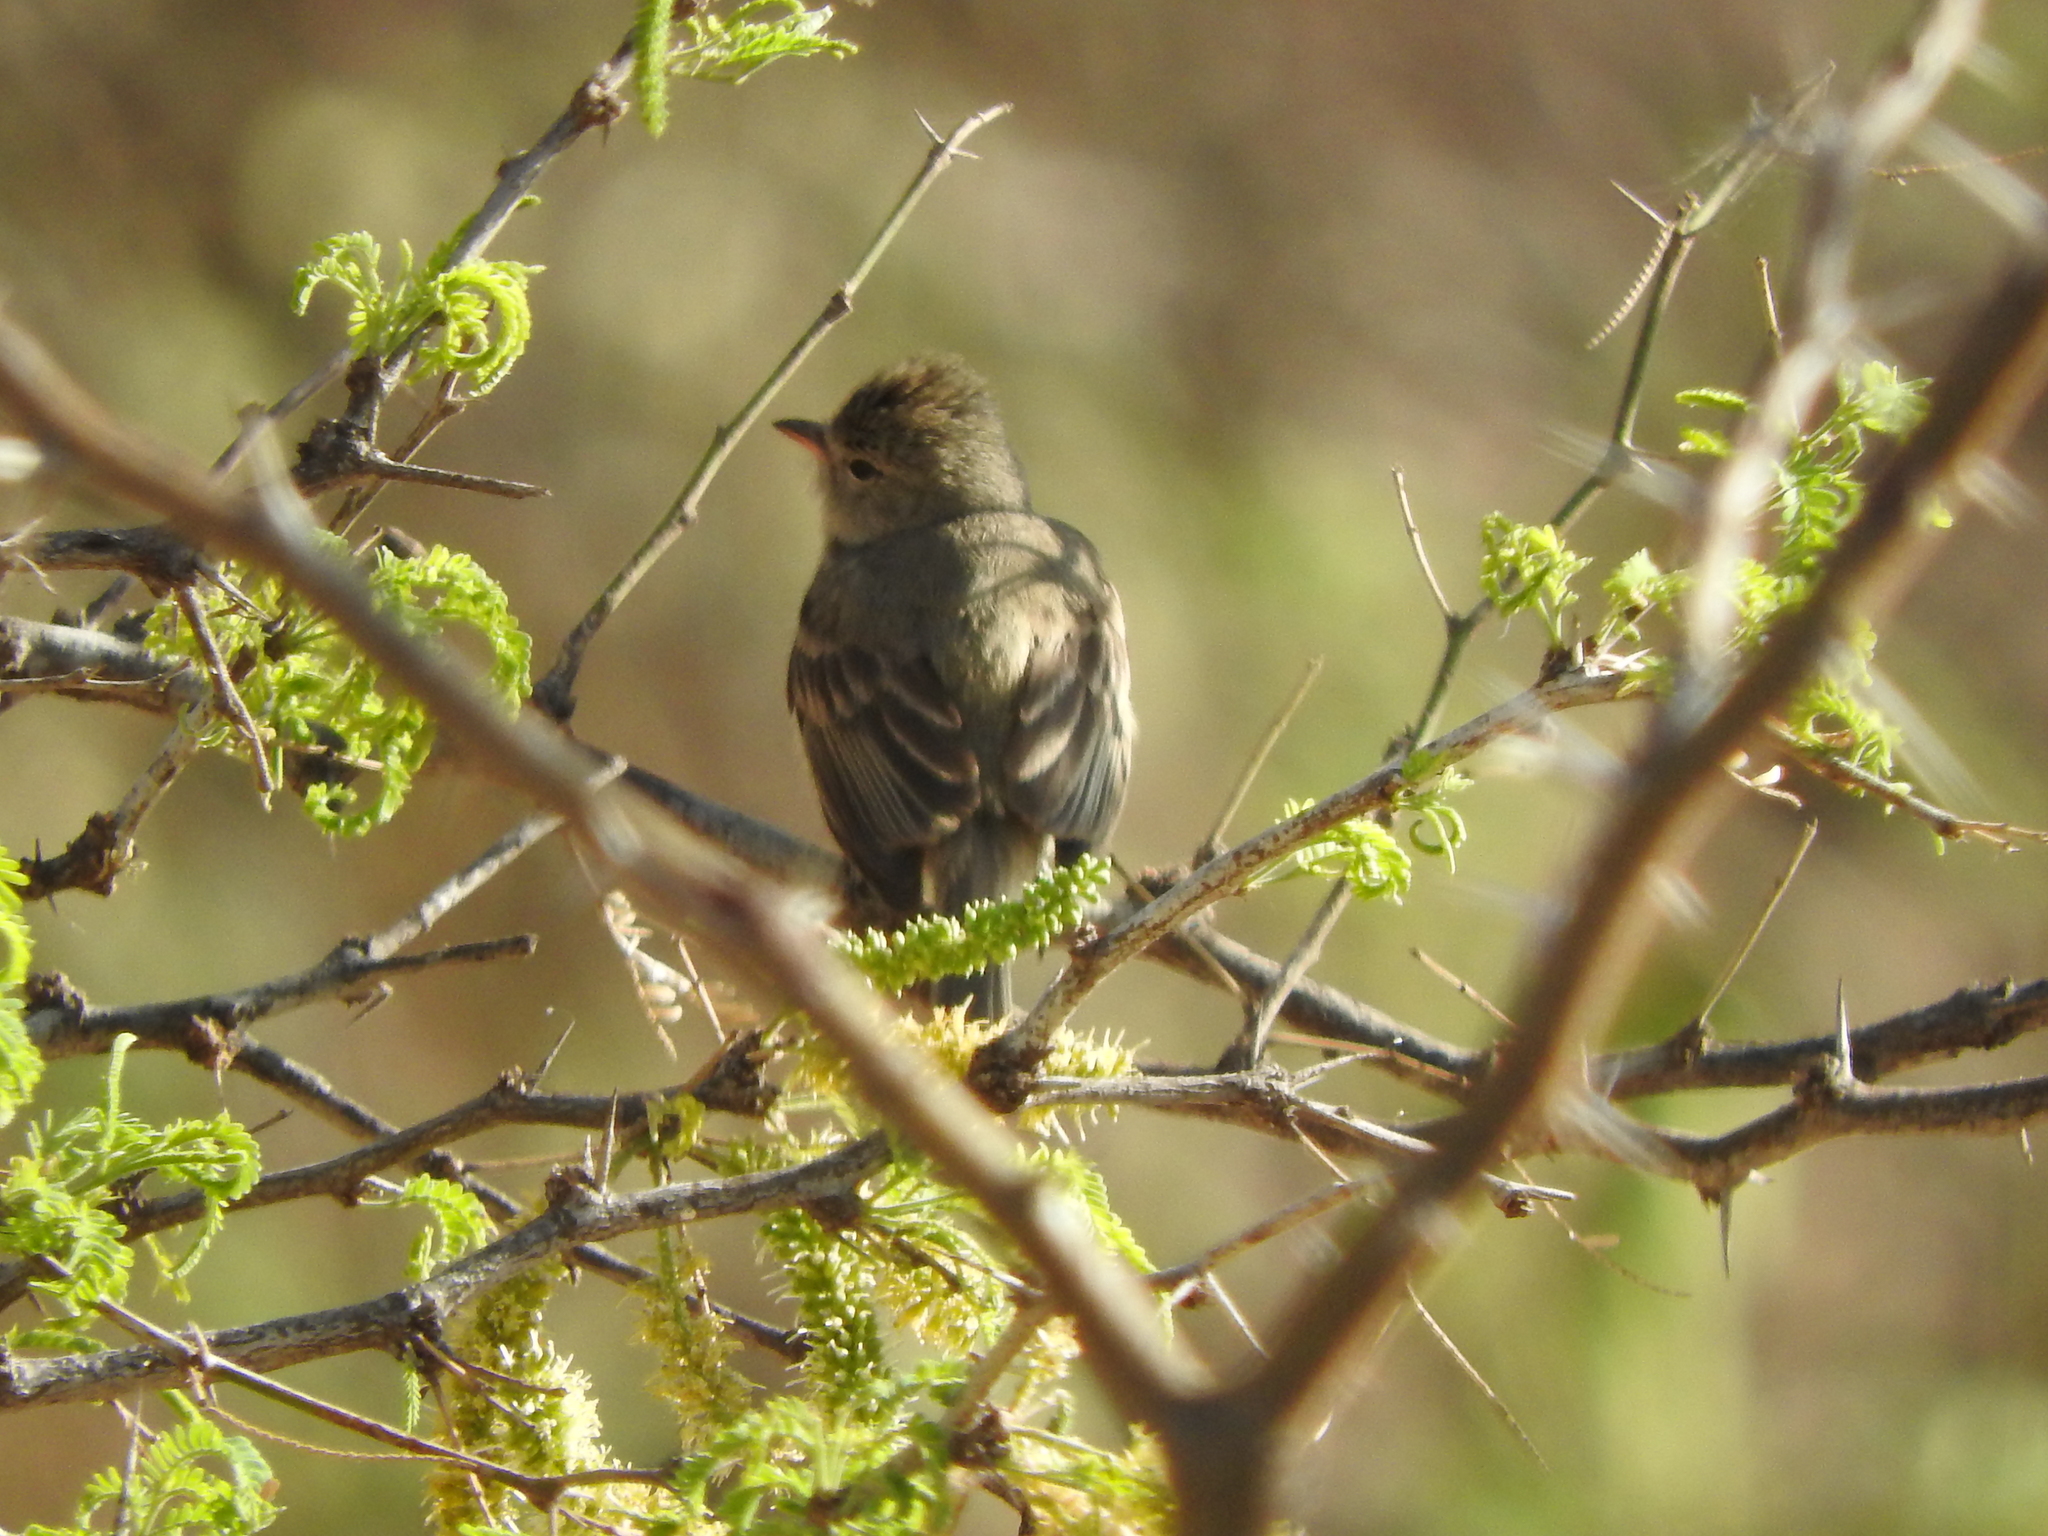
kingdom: Animalia
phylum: Chordata
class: Aves
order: Passeriformes
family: Tyrannidae
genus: Camptostoma
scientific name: Camptostoma imberbe
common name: Northern beardless-tyrannulet
